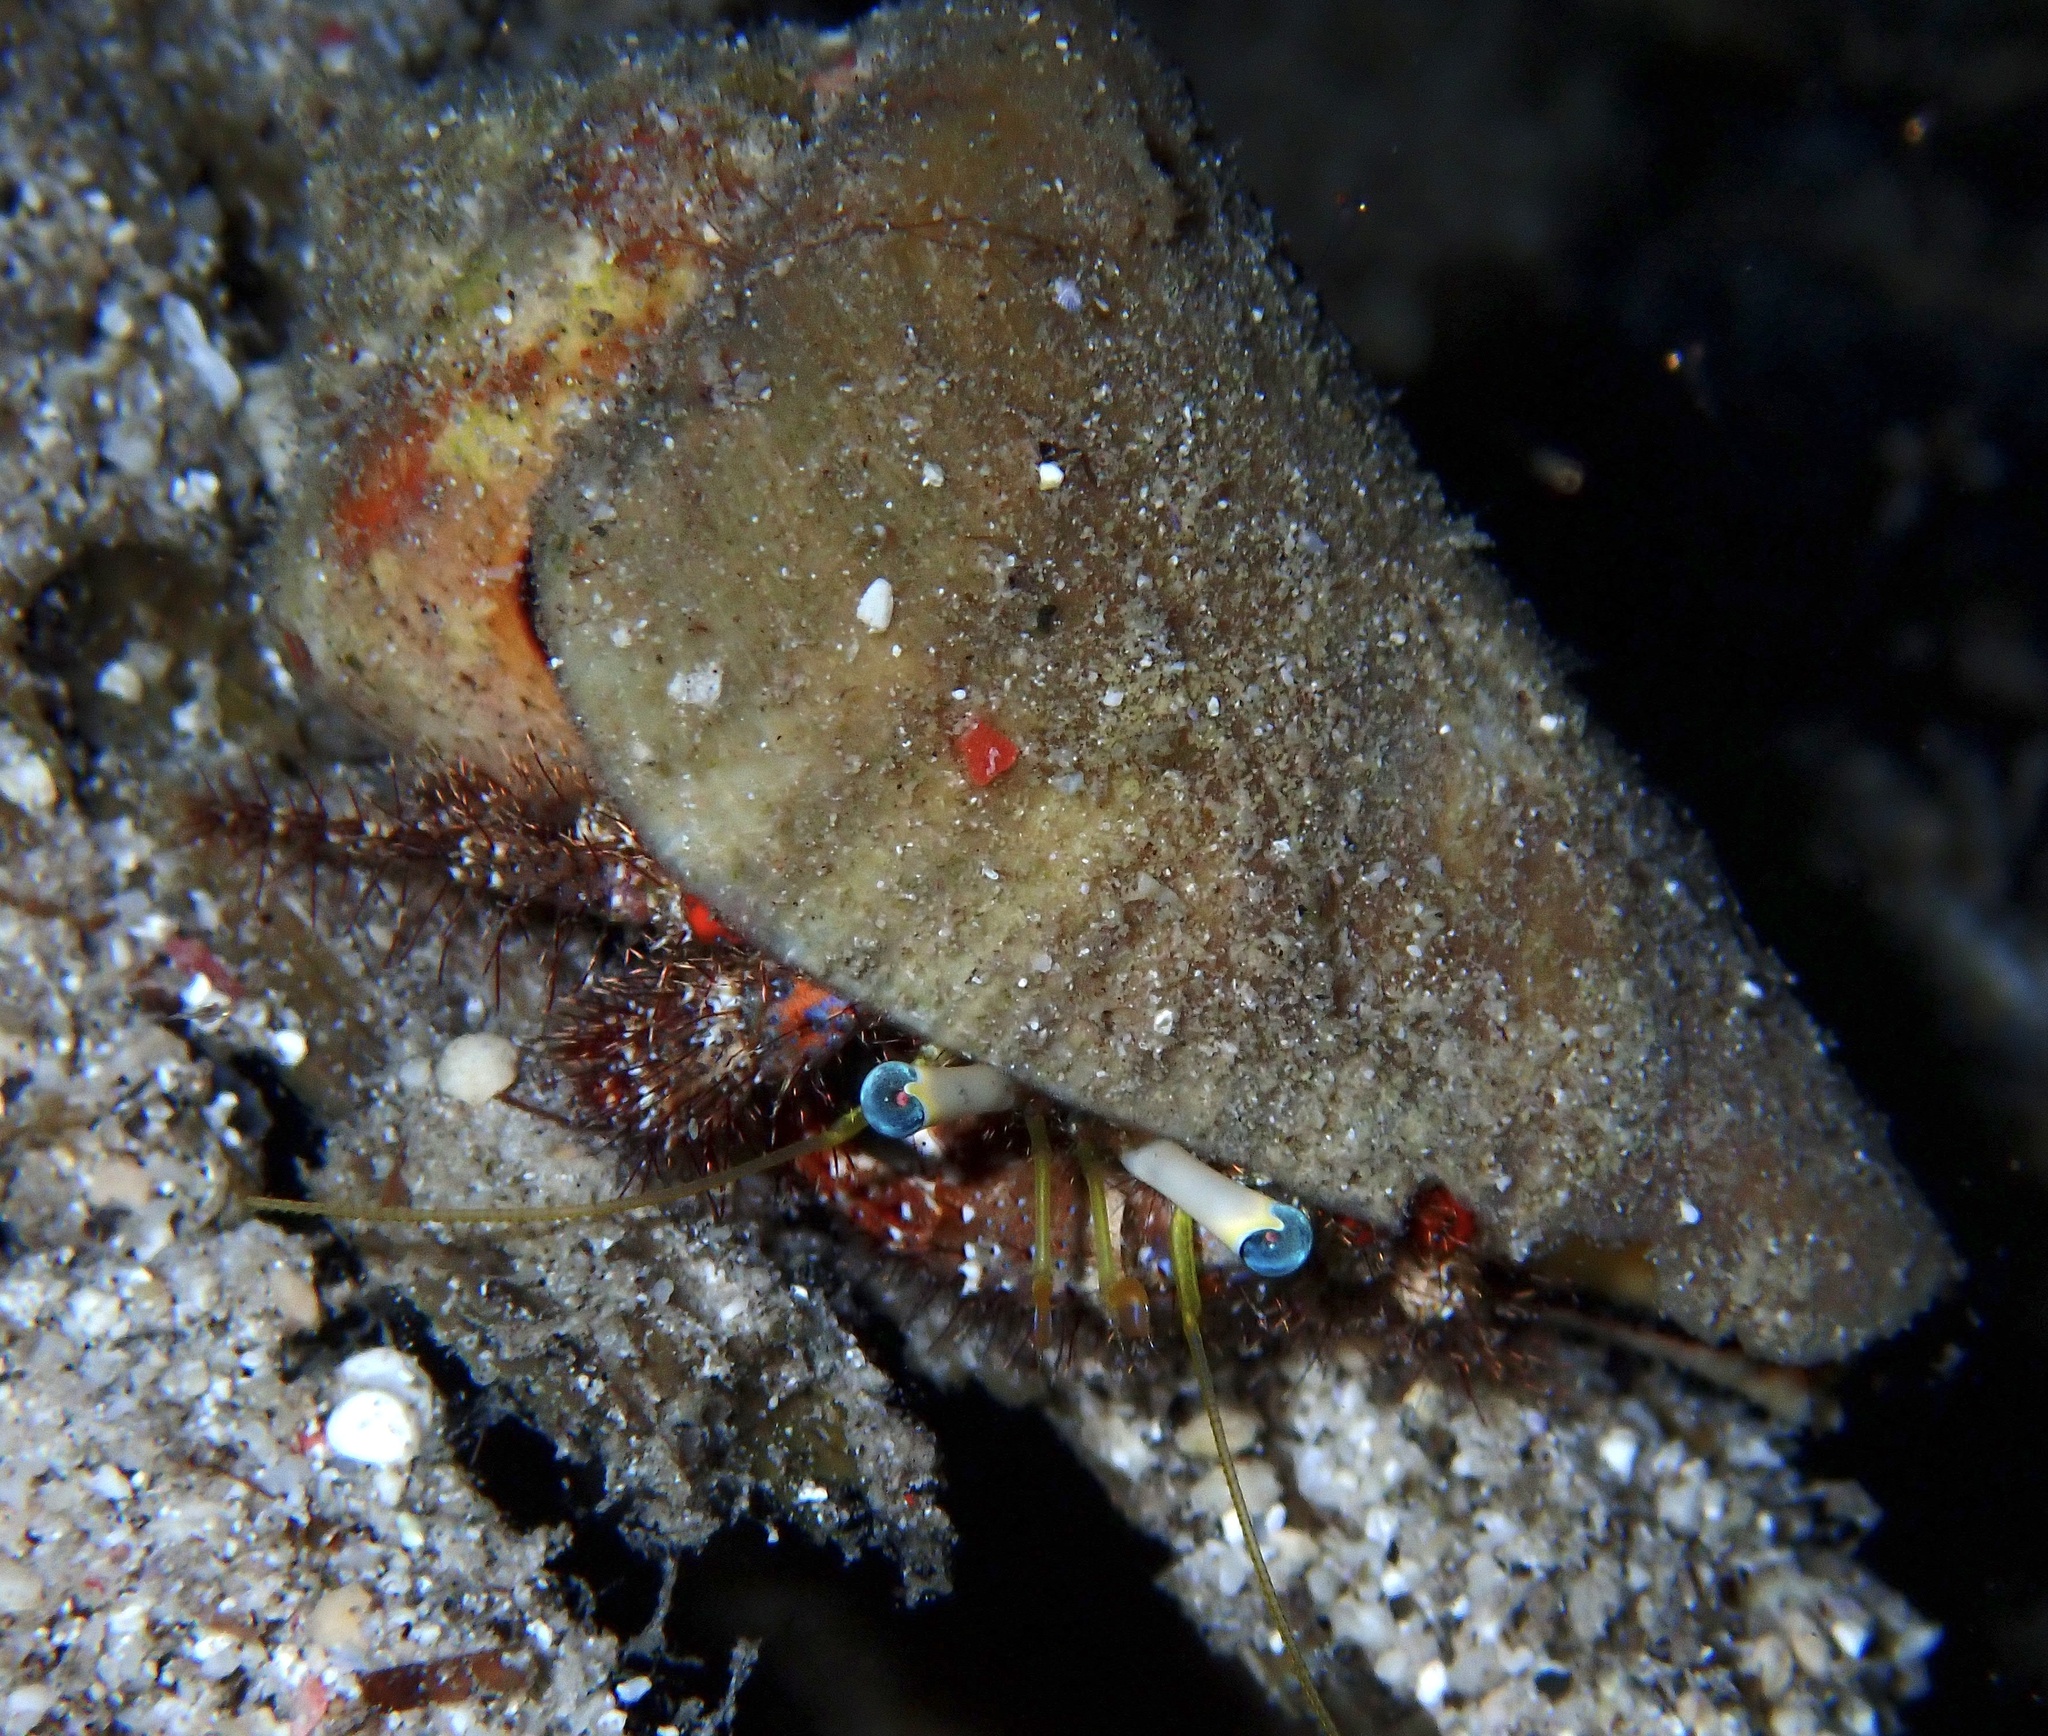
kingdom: Animalia
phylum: Arthropoda
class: Malacostraca
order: Decapoda
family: Diogenidae
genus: Dardanus
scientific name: Dardanus sanguinolentus
